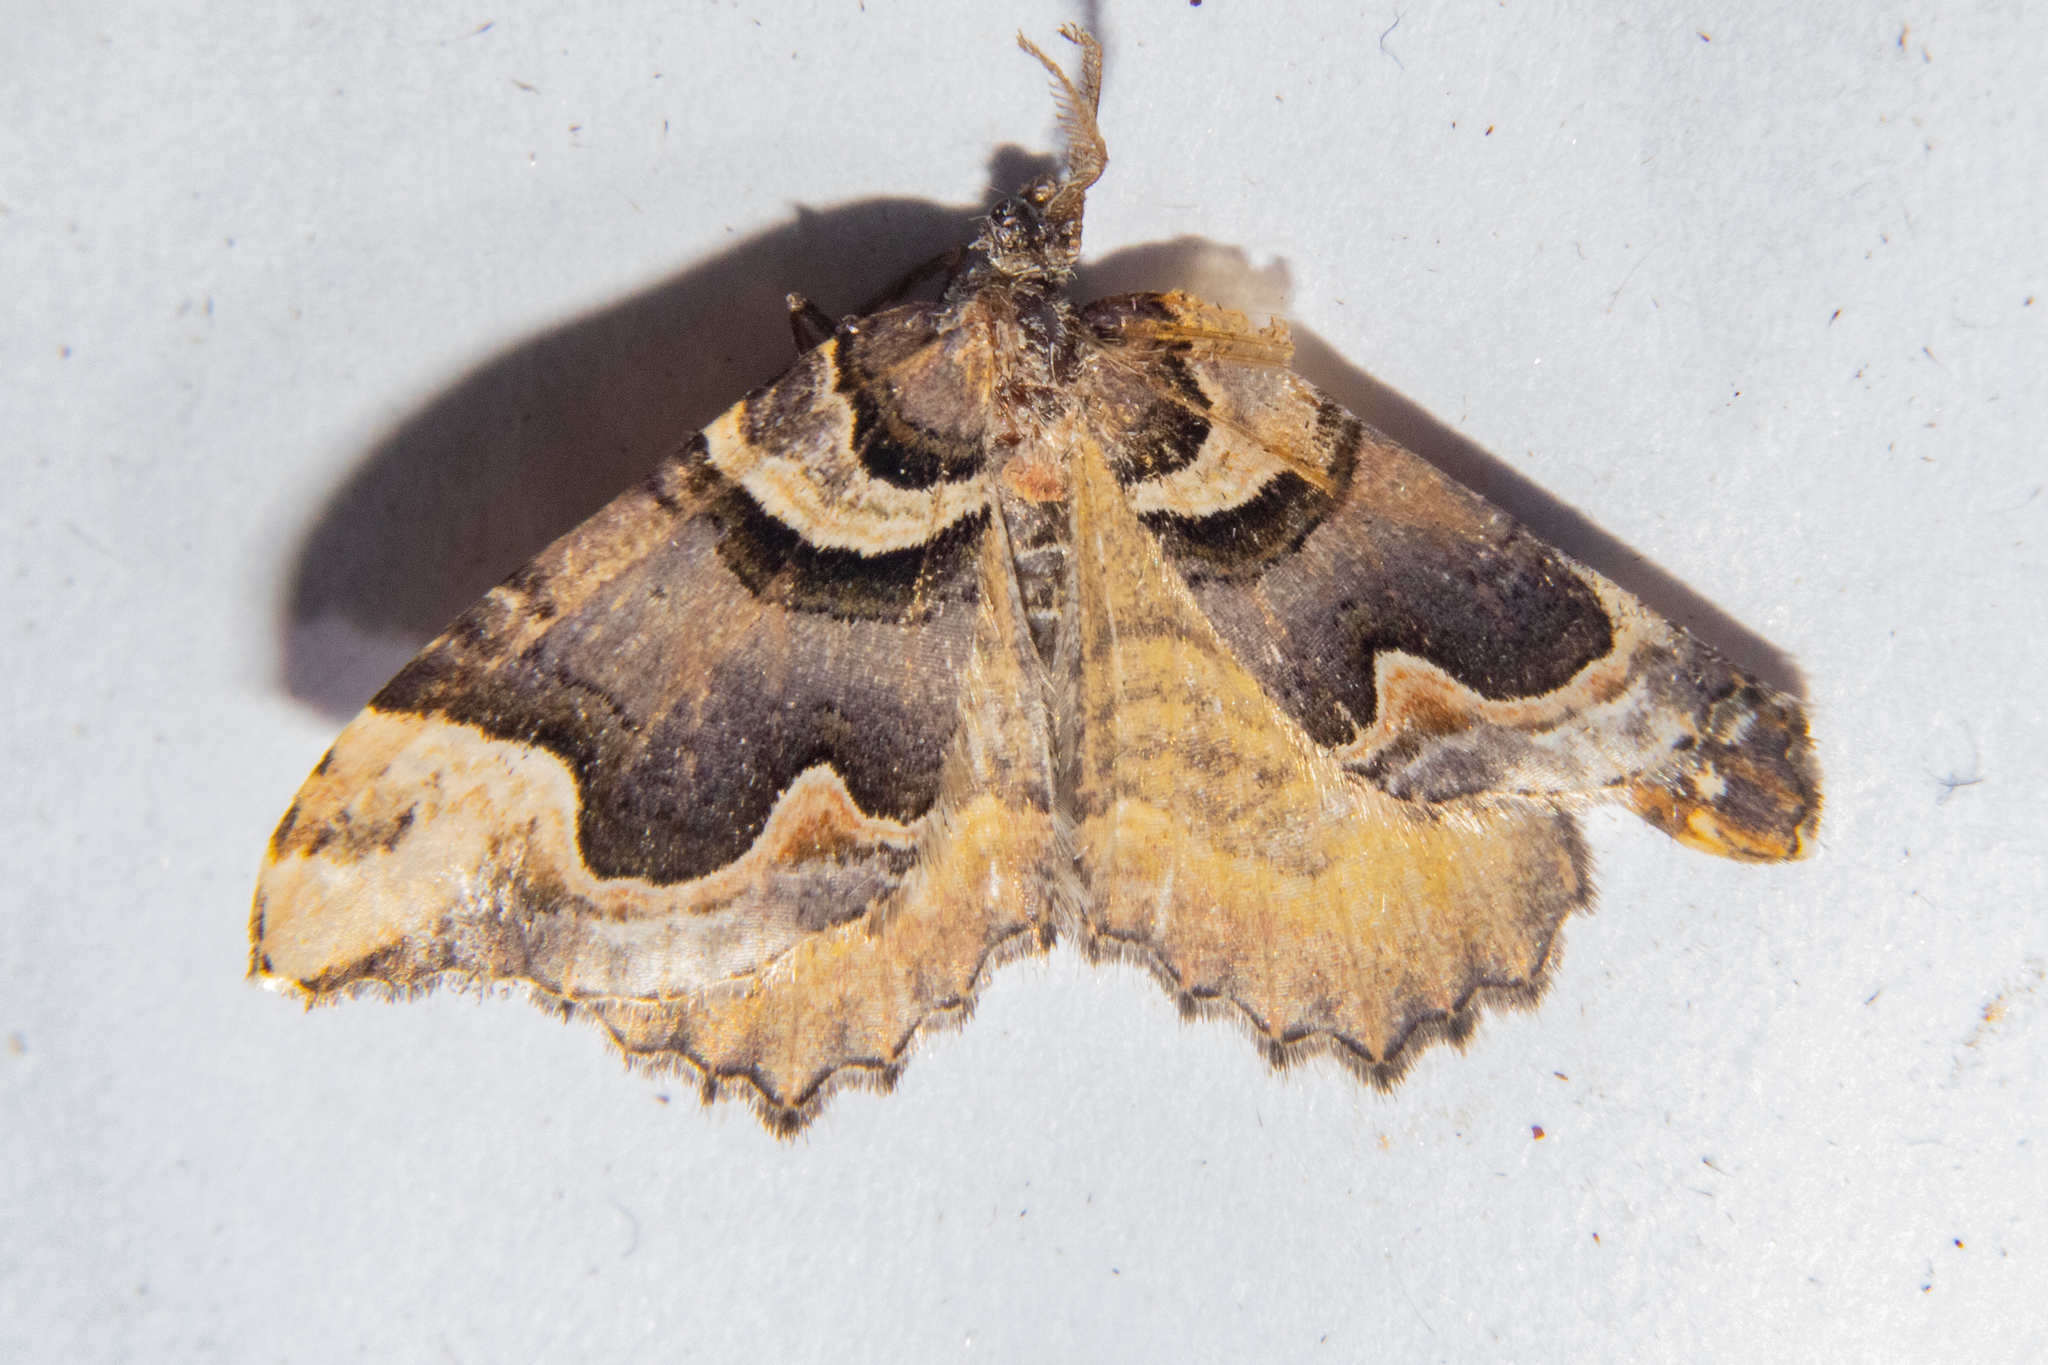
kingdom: Animalia
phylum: Arthropoda
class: Insecta
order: Lepidoptera
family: Geometridae
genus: Asaphodes
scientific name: Asaphodes chlamydota
